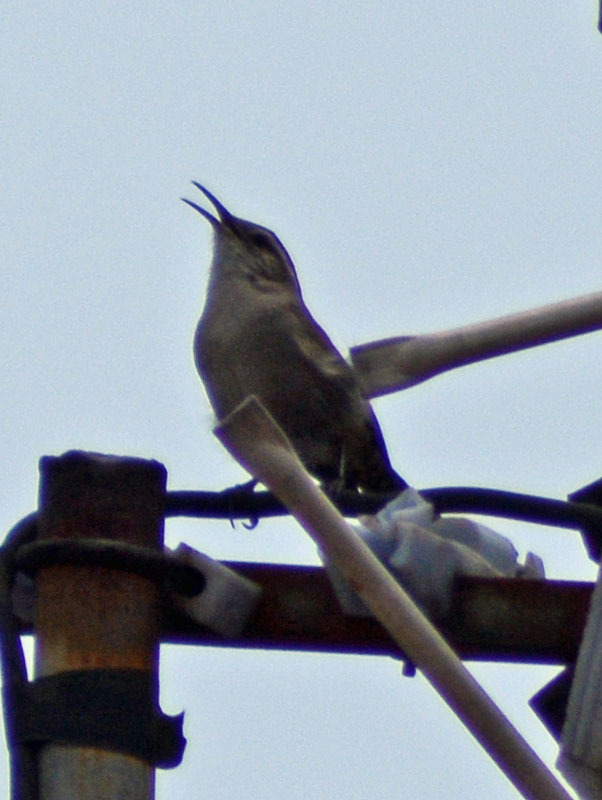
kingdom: Animalia
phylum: Chordata
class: Aves
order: Passeriformes
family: Troglodytidae
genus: Thryomanes
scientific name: Thryomanes bewickii
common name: Bewick's wren
